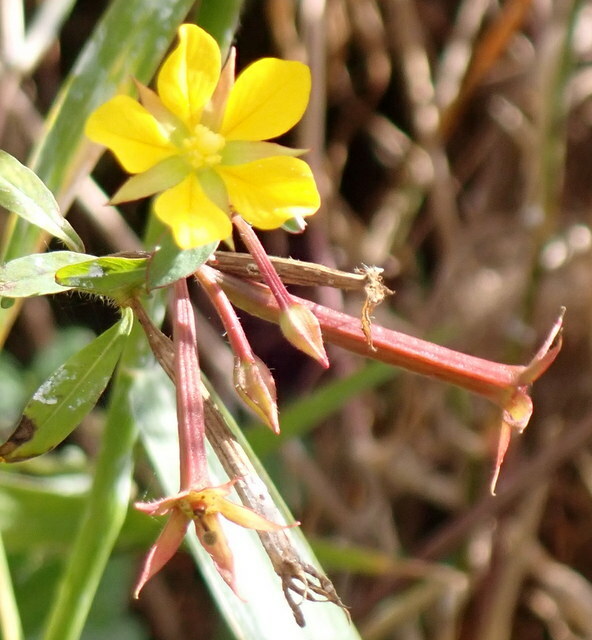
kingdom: Plantae
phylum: Tracheophyta
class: Magnoliopsida
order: Myrtales
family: Onagraceae
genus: Ludwigia
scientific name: Ludwigia leptocarpa
